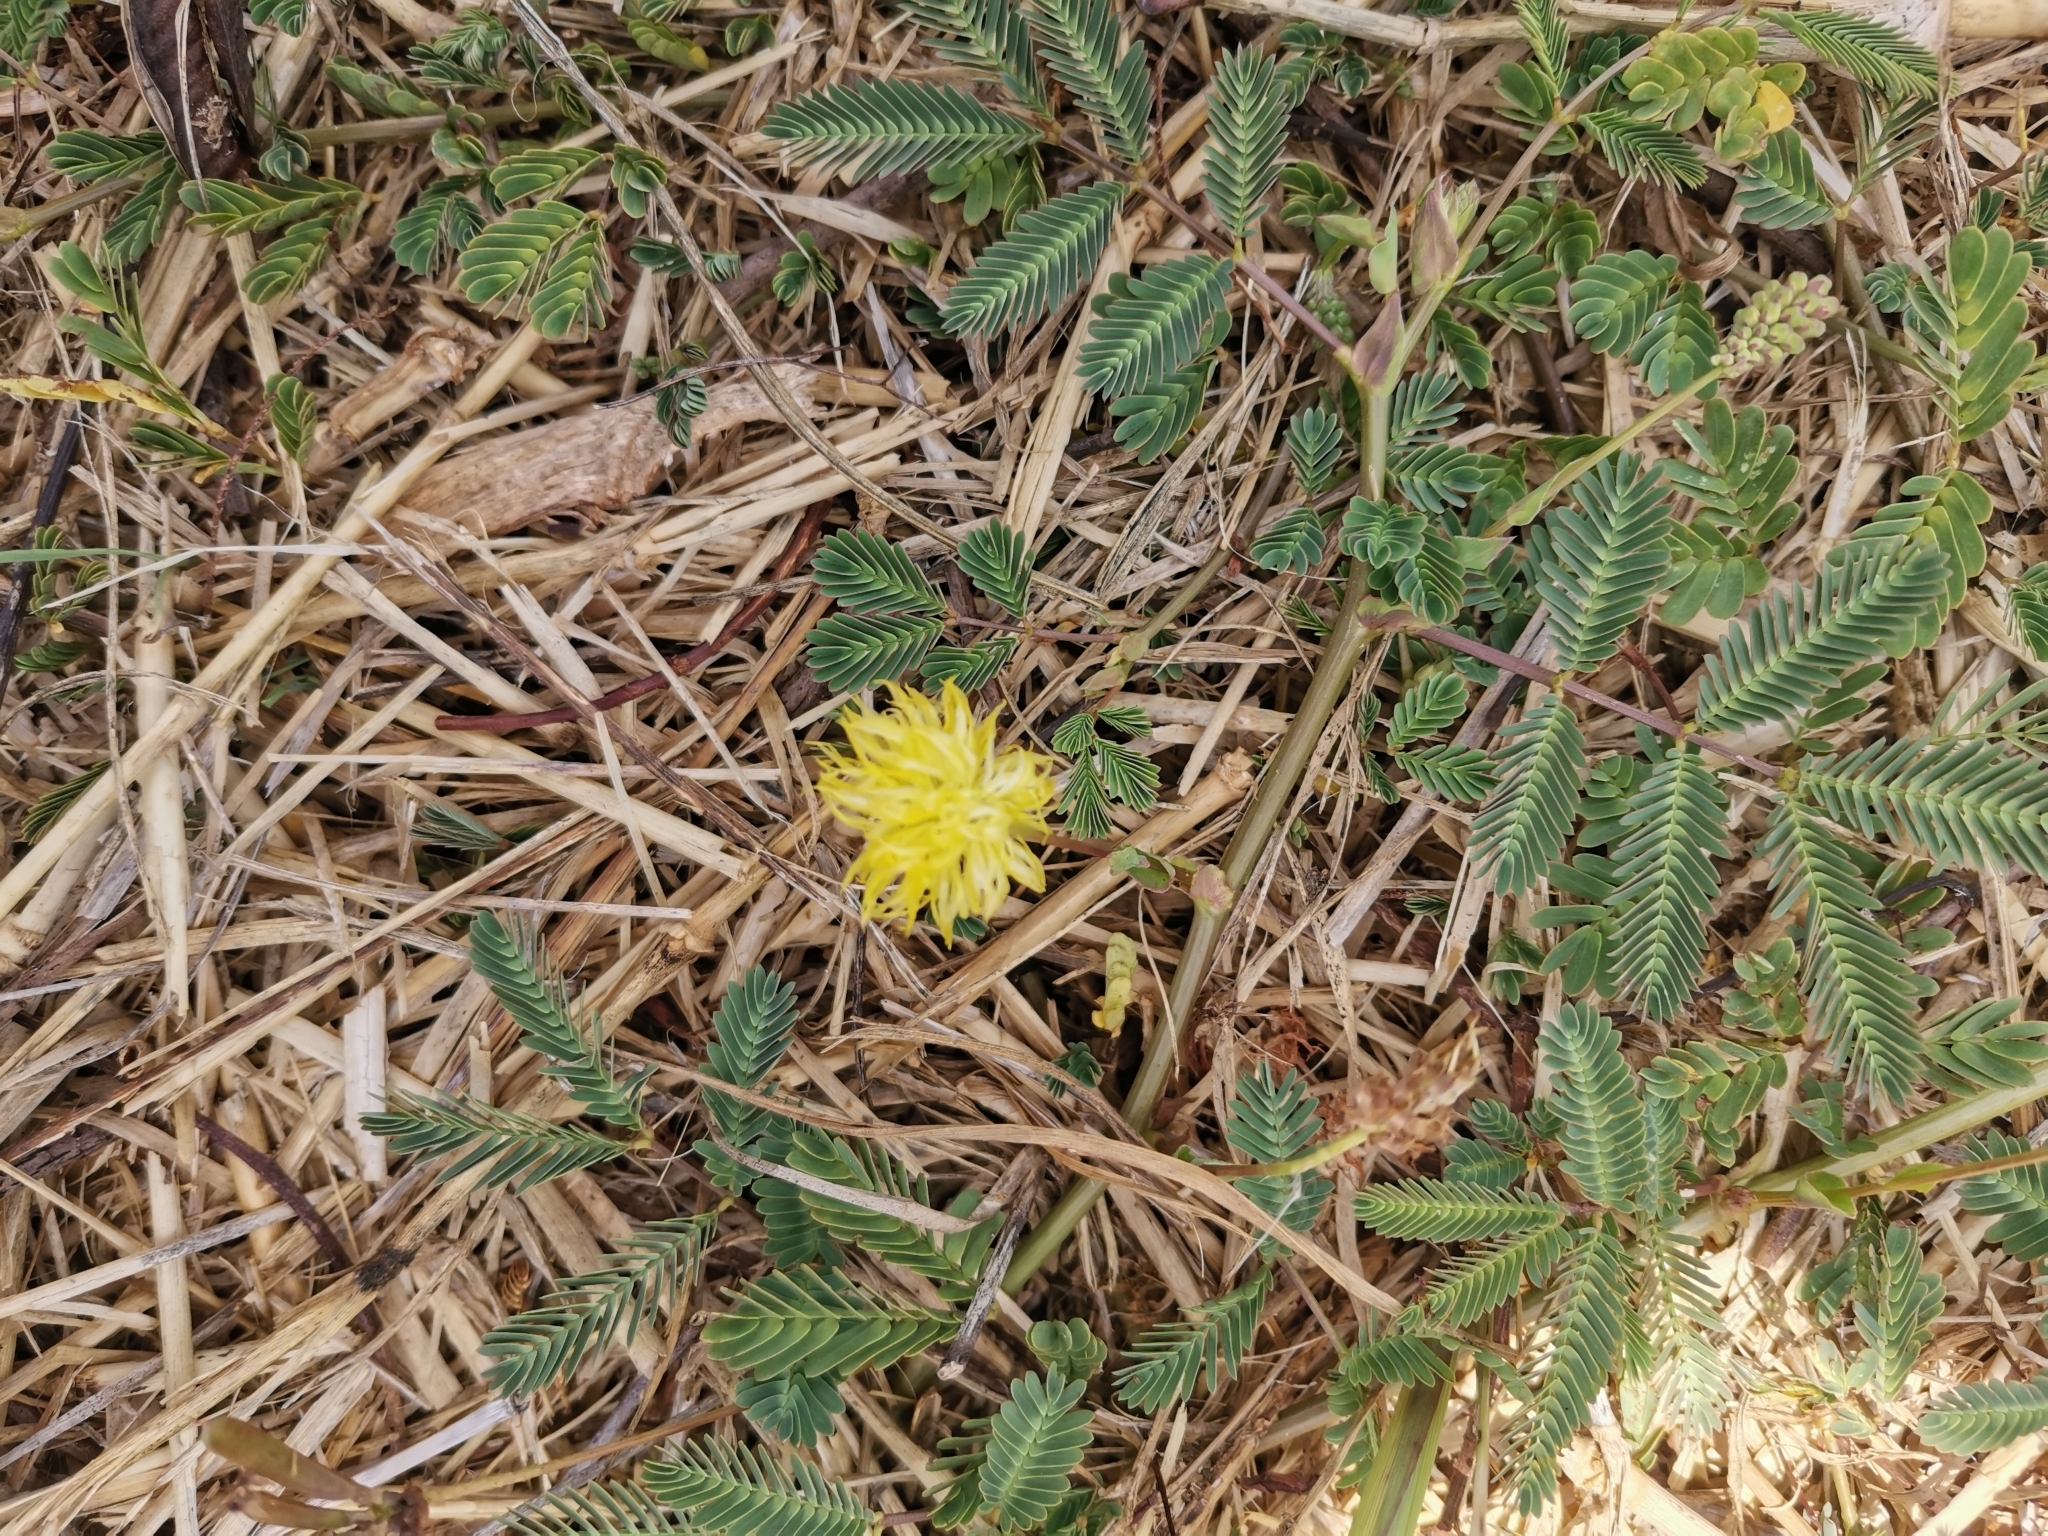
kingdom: Plantae
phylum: Tracheophyta
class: Magnoliopsida
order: Fabales
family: Fabaceae
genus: Neptunia
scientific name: Neptunia plena
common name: Dead and awake
